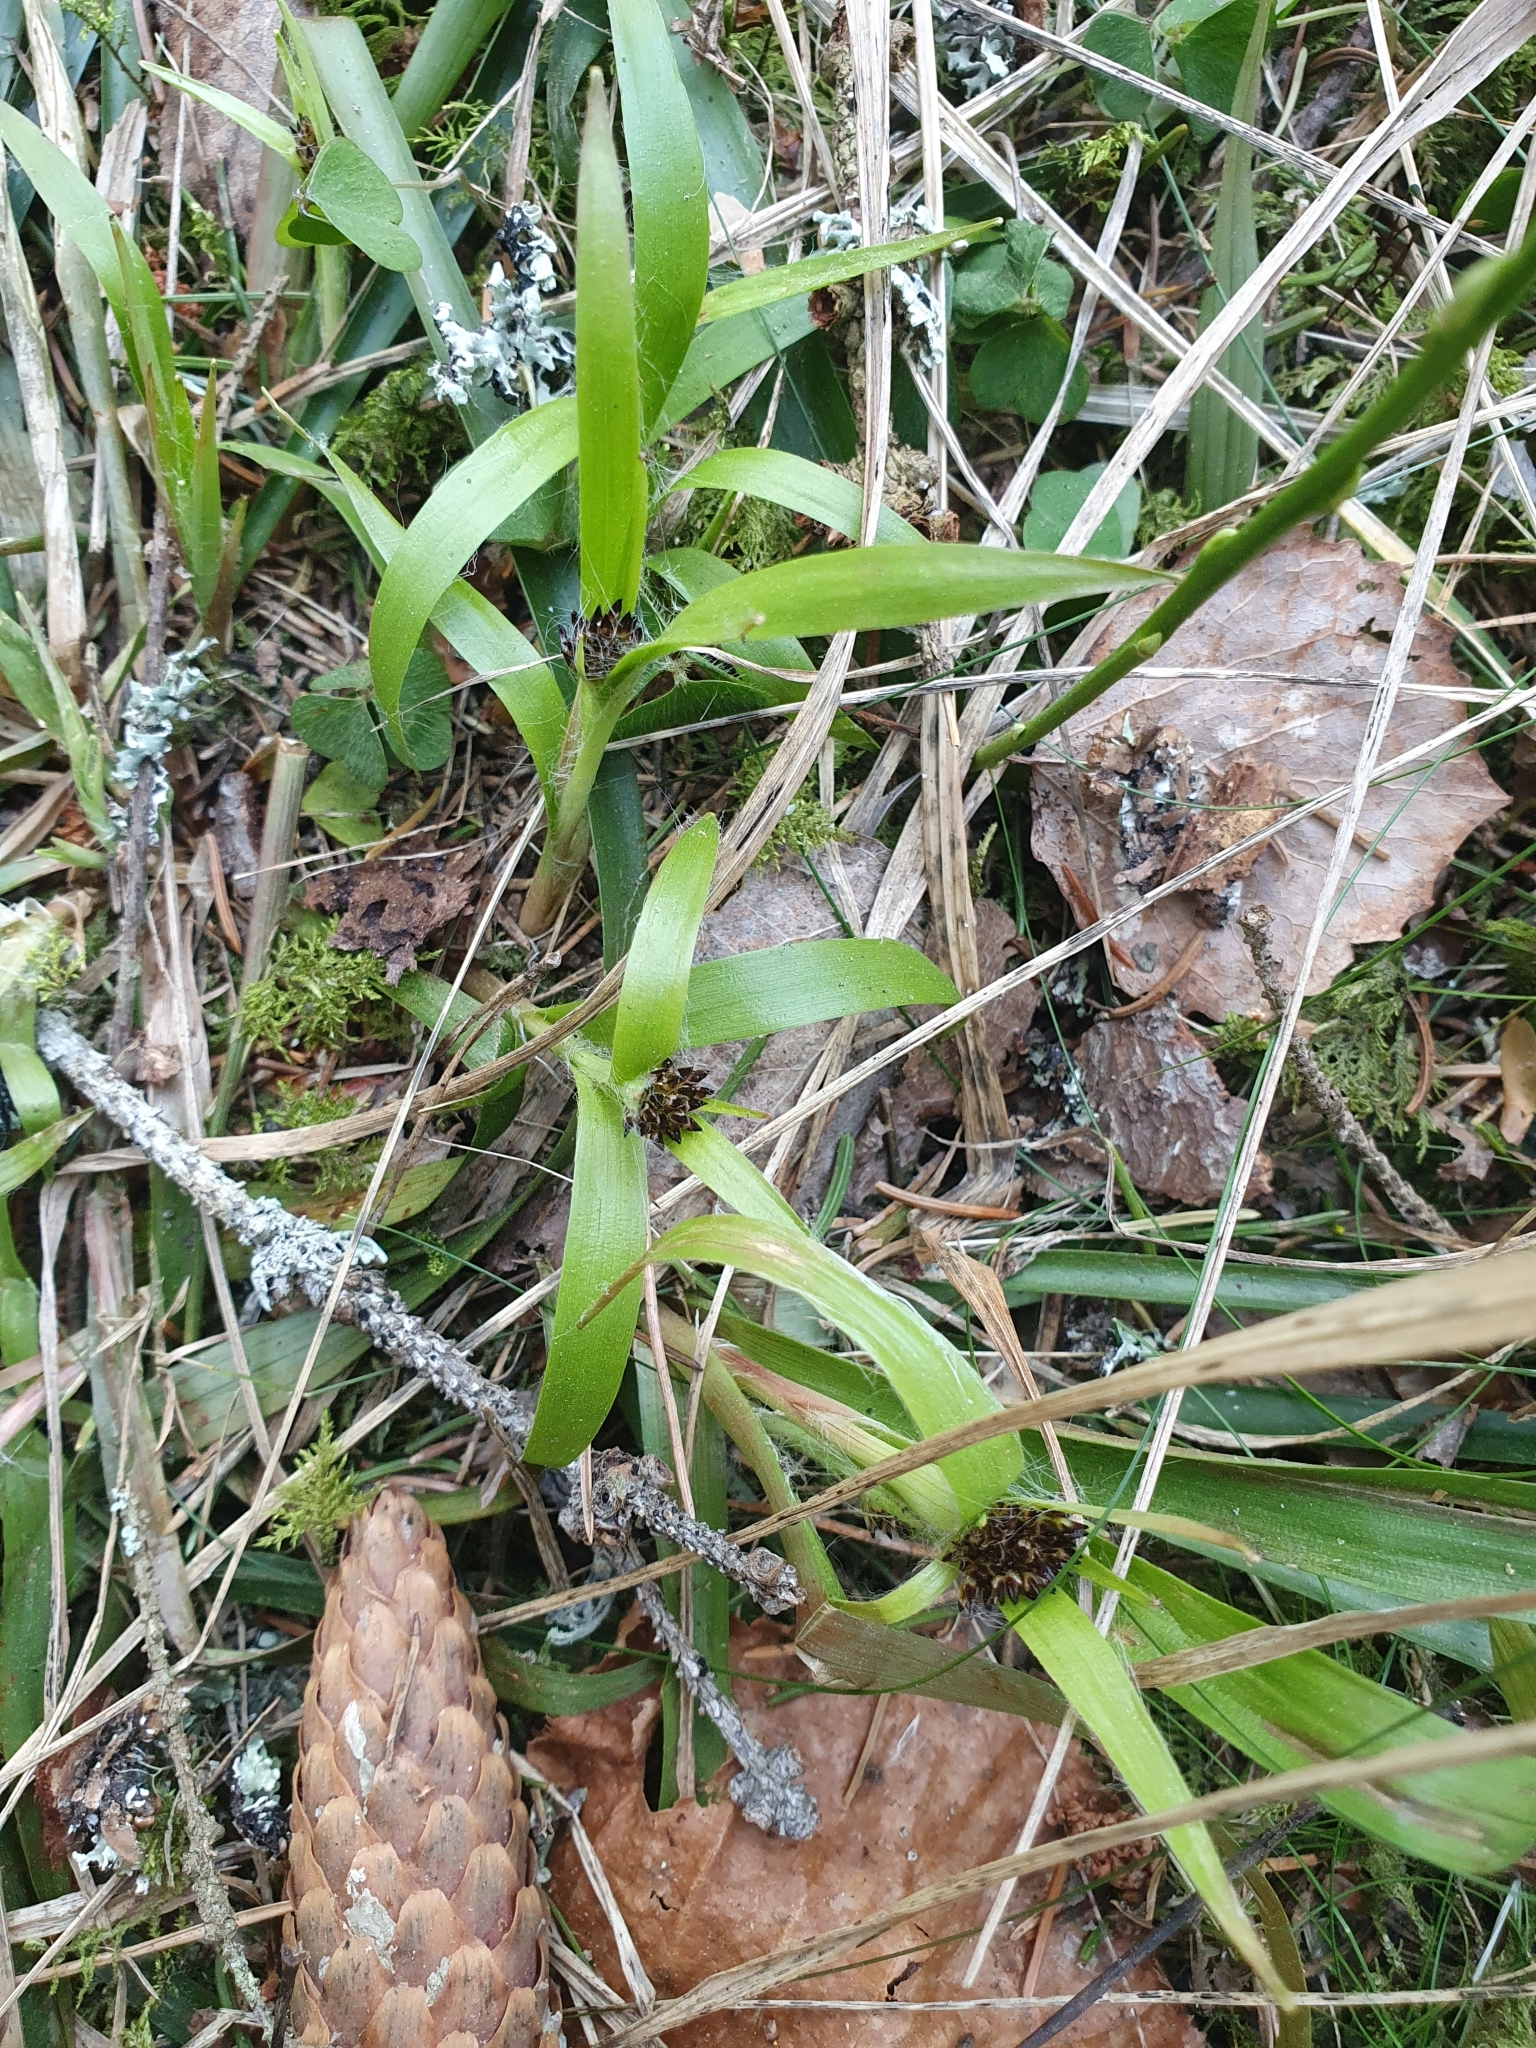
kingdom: Plantae
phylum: Tracheophyta
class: Liliopsida
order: Poales
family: Juncaceae
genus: Luzula
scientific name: Luzula pilosa
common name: Hairy wood-rush
